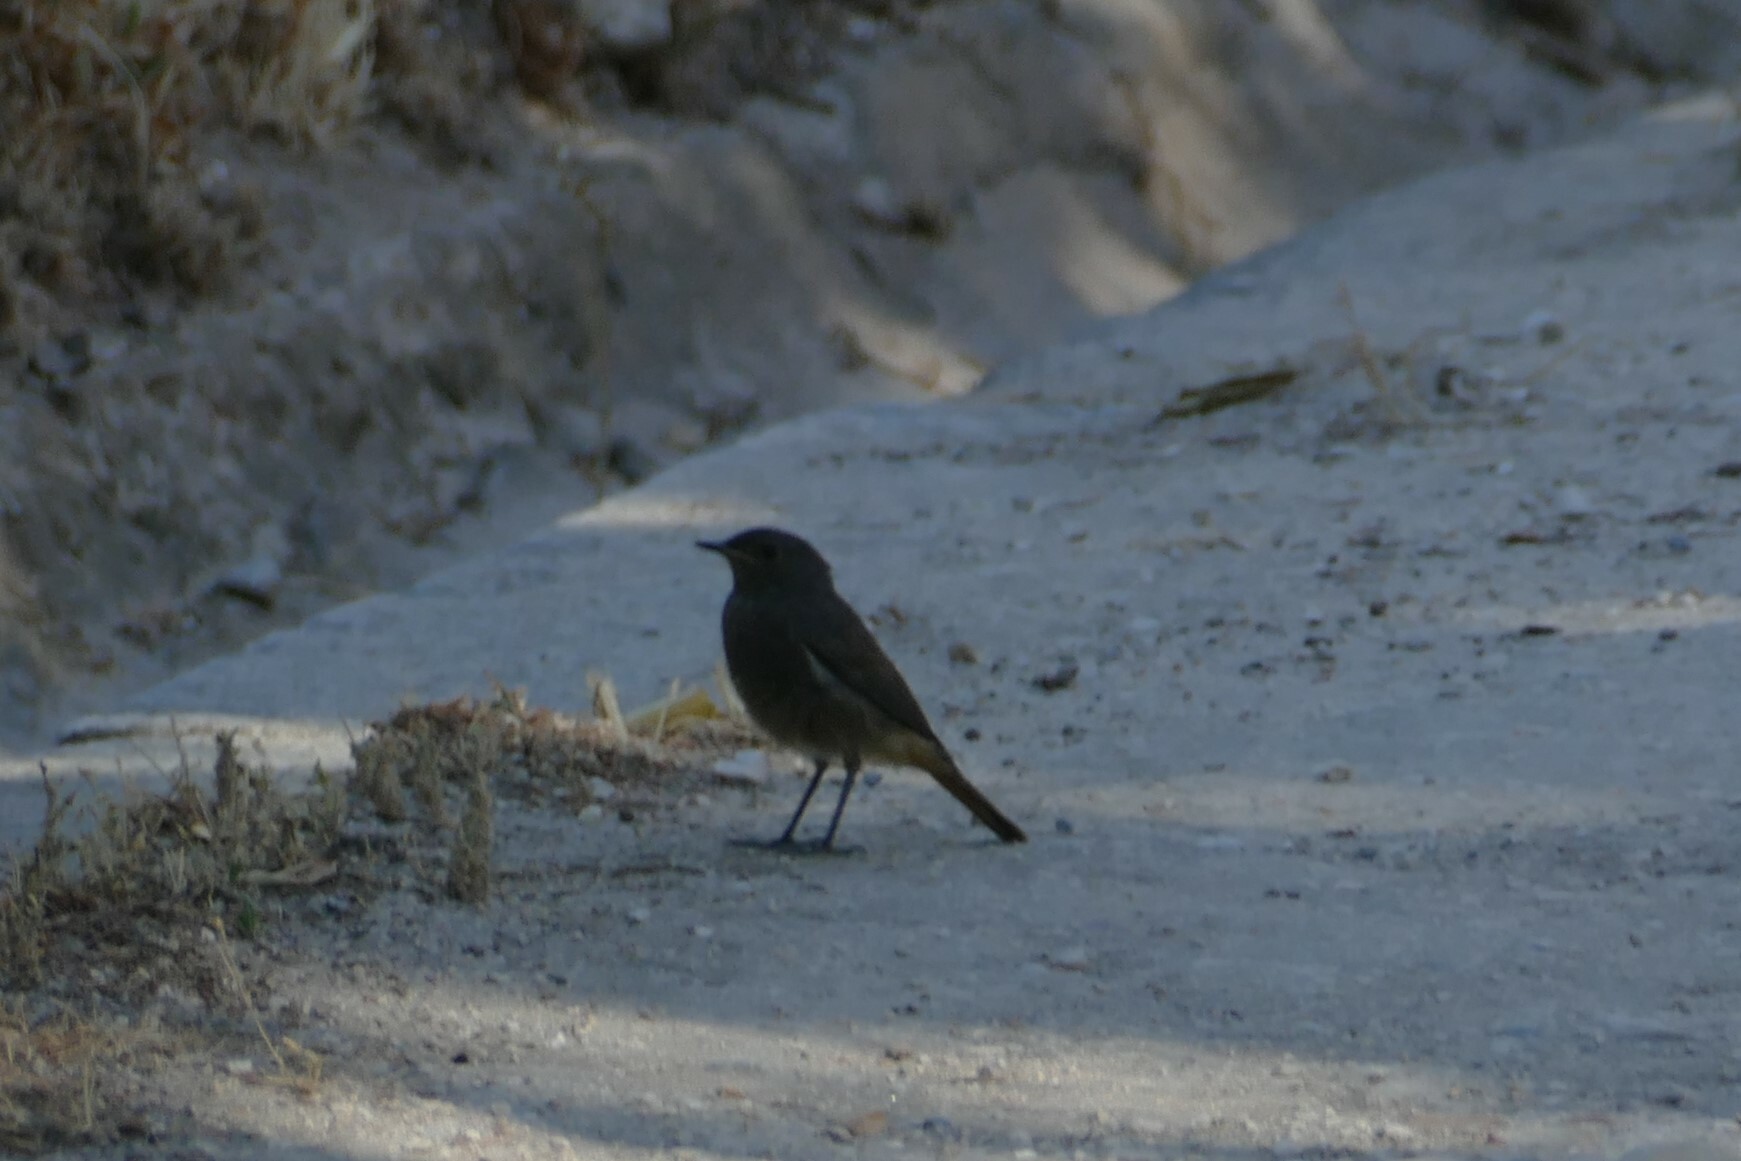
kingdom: Animalia
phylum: Chordata
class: Aves
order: Passeriformes
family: Muscicapidae
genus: Phoenicurus
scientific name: Phoenicurus ochruros
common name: Black redstart
